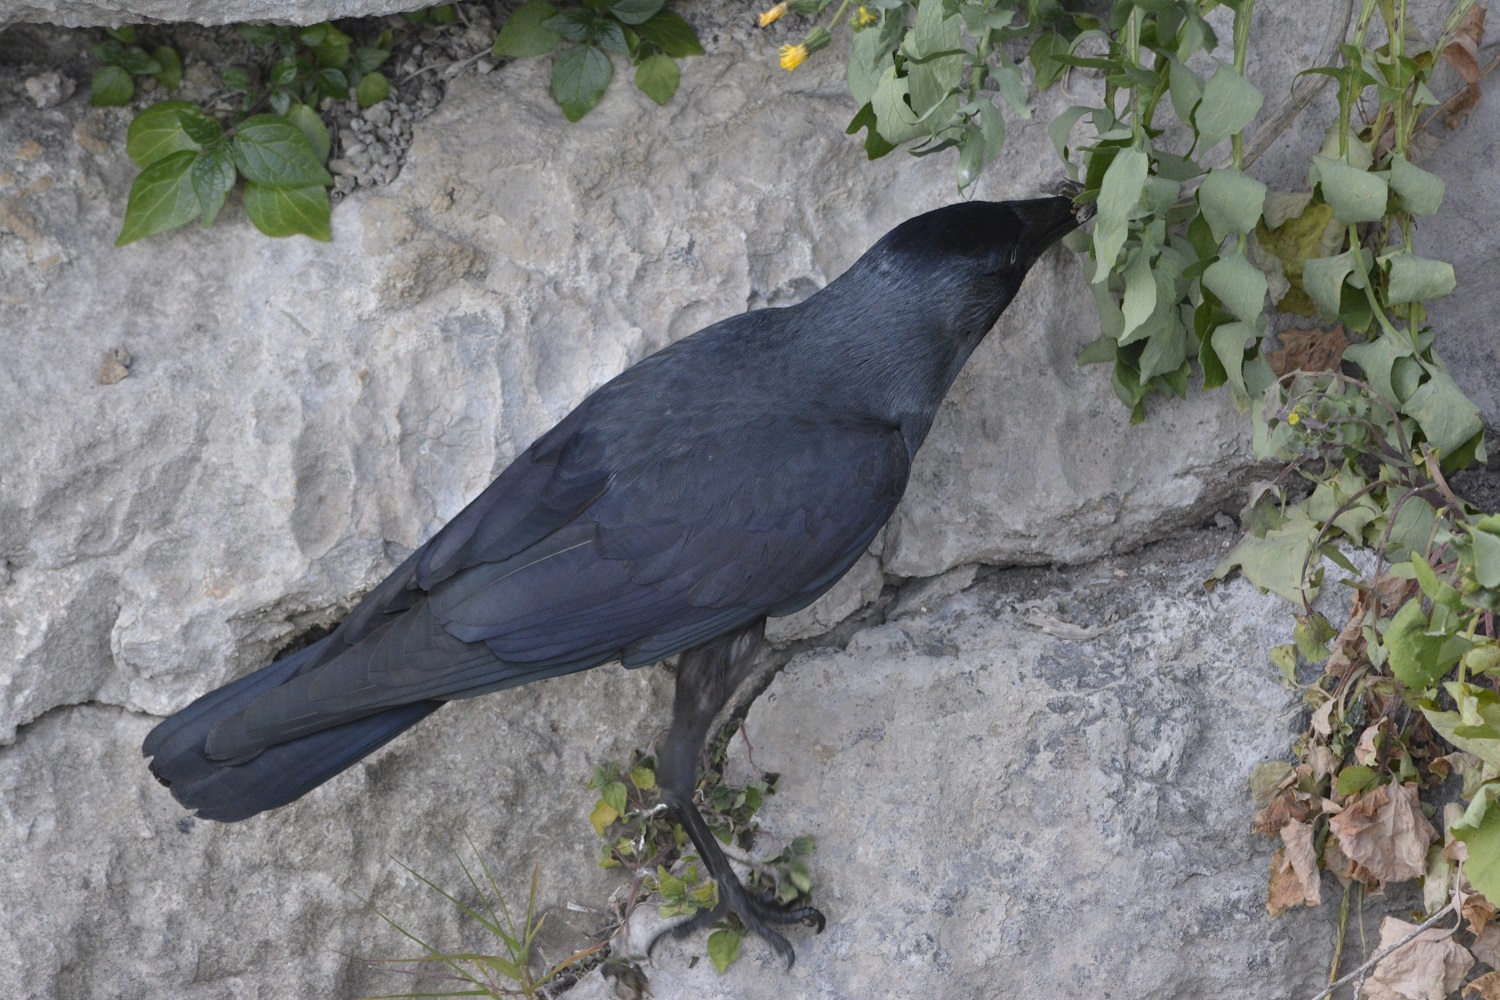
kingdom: Animalia
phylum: Chordata
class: Aves
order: Passeriformes
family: Corvidae
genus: Coloeus
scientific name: Coloeus monedula
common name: Western jackdaw
